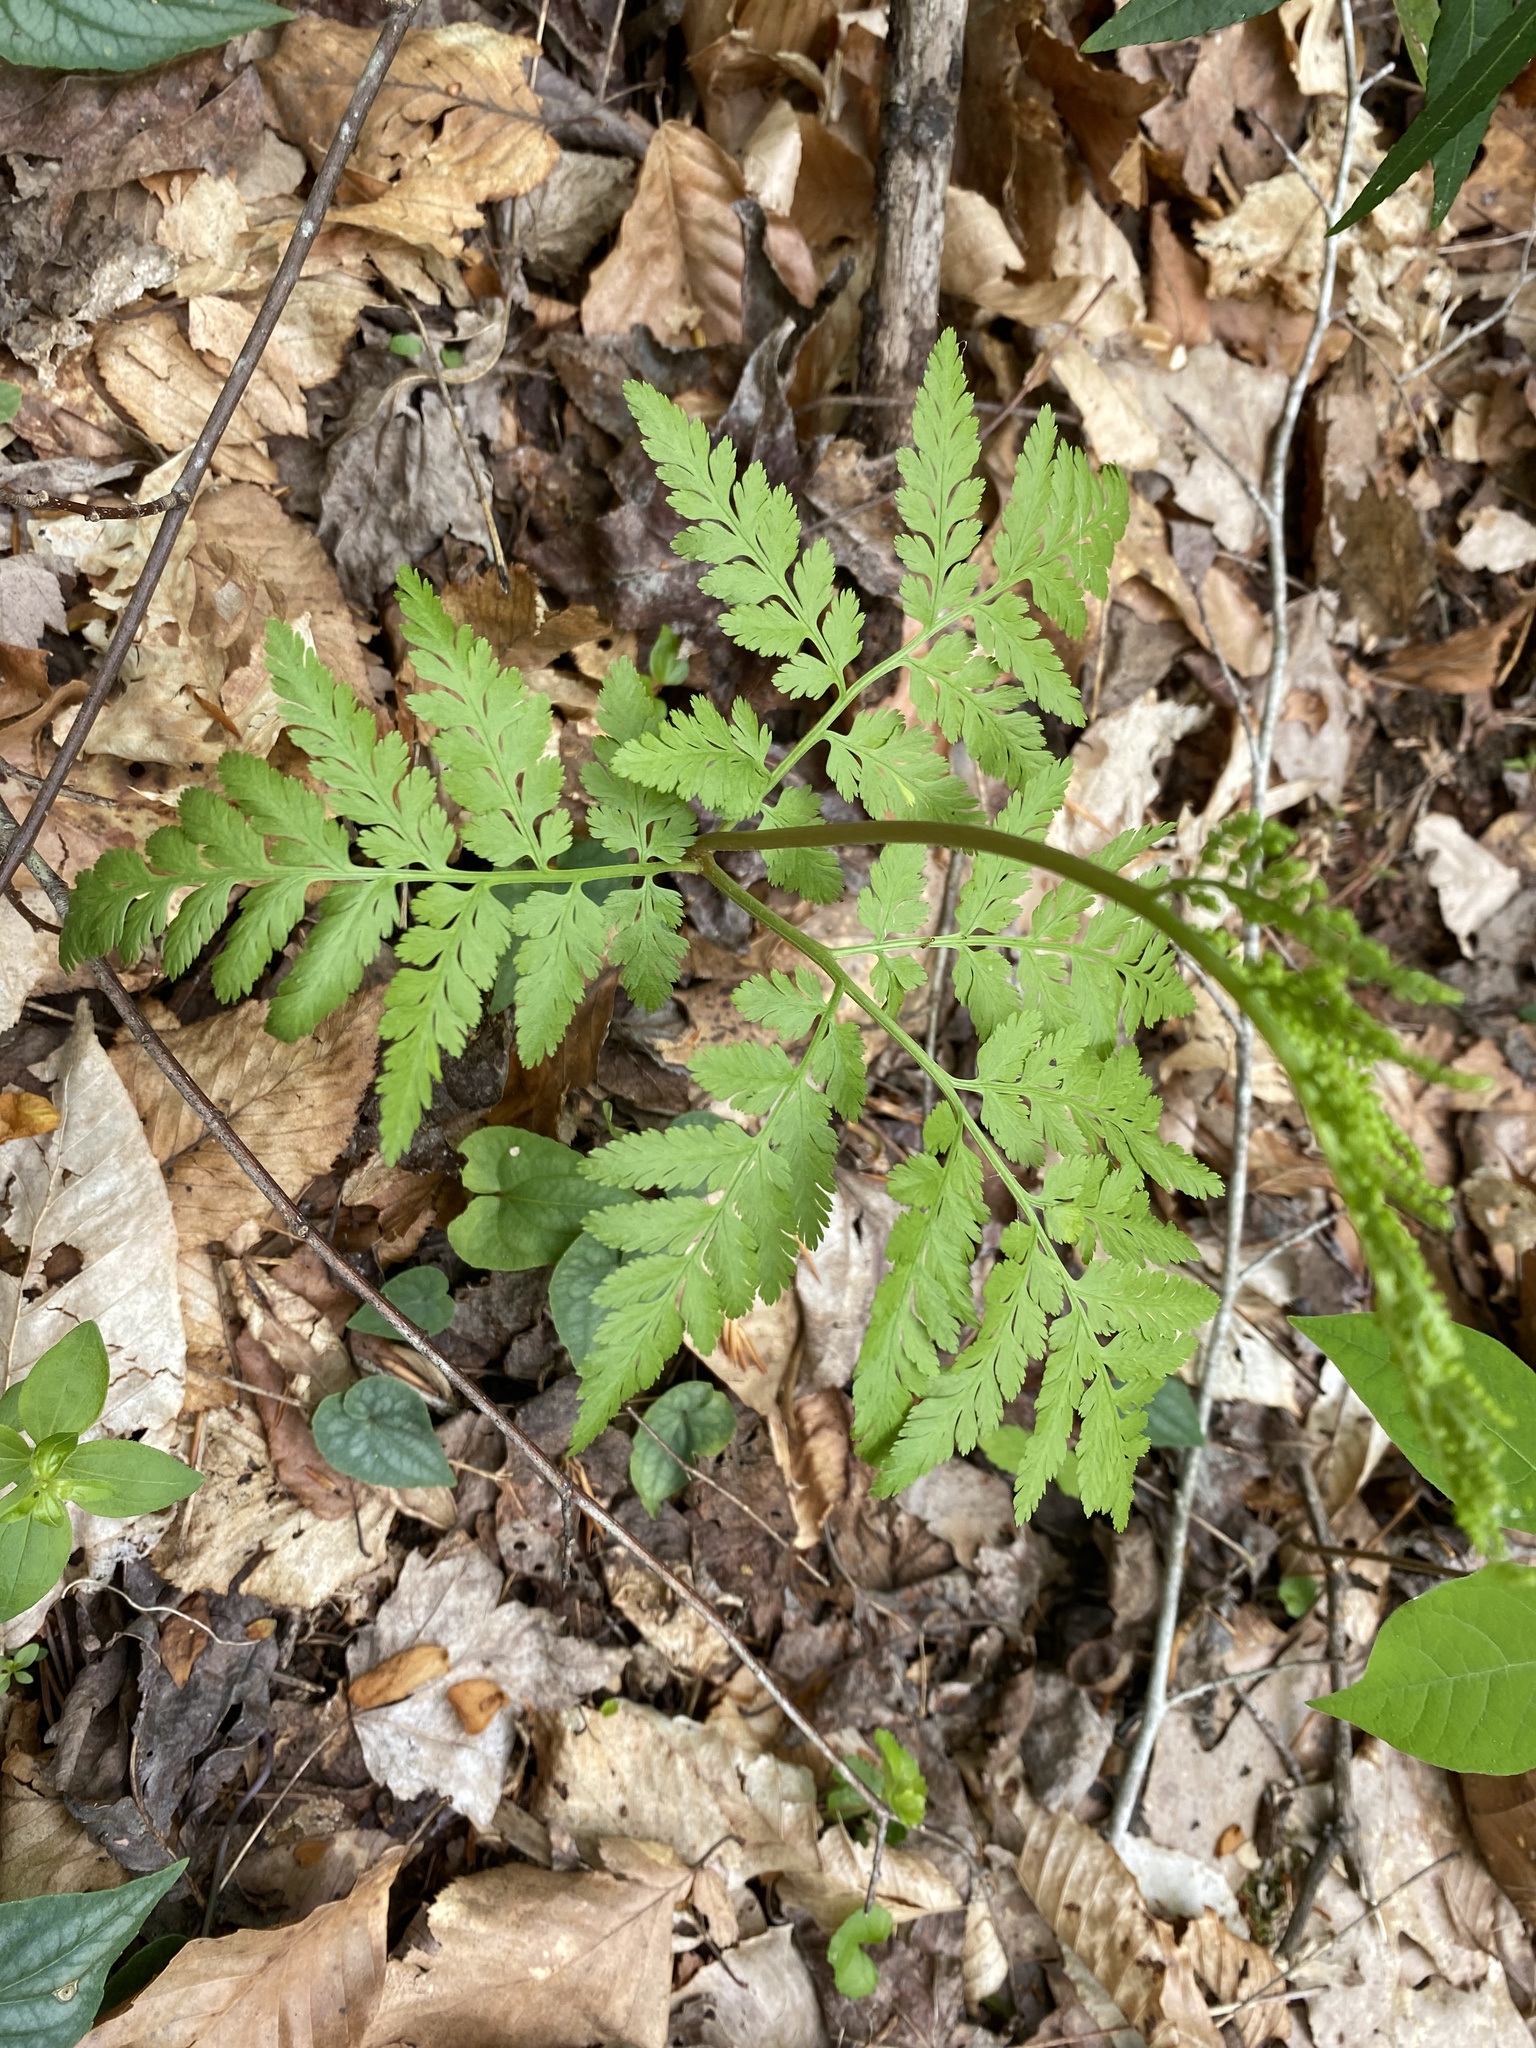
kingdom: Plantae
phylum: Tracheophyta
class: Polypodiopsida
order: Ophioglossales
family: Ophioglossaceae
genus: Botrypus
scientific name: Botrypus virginianus
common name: Common grapefern
